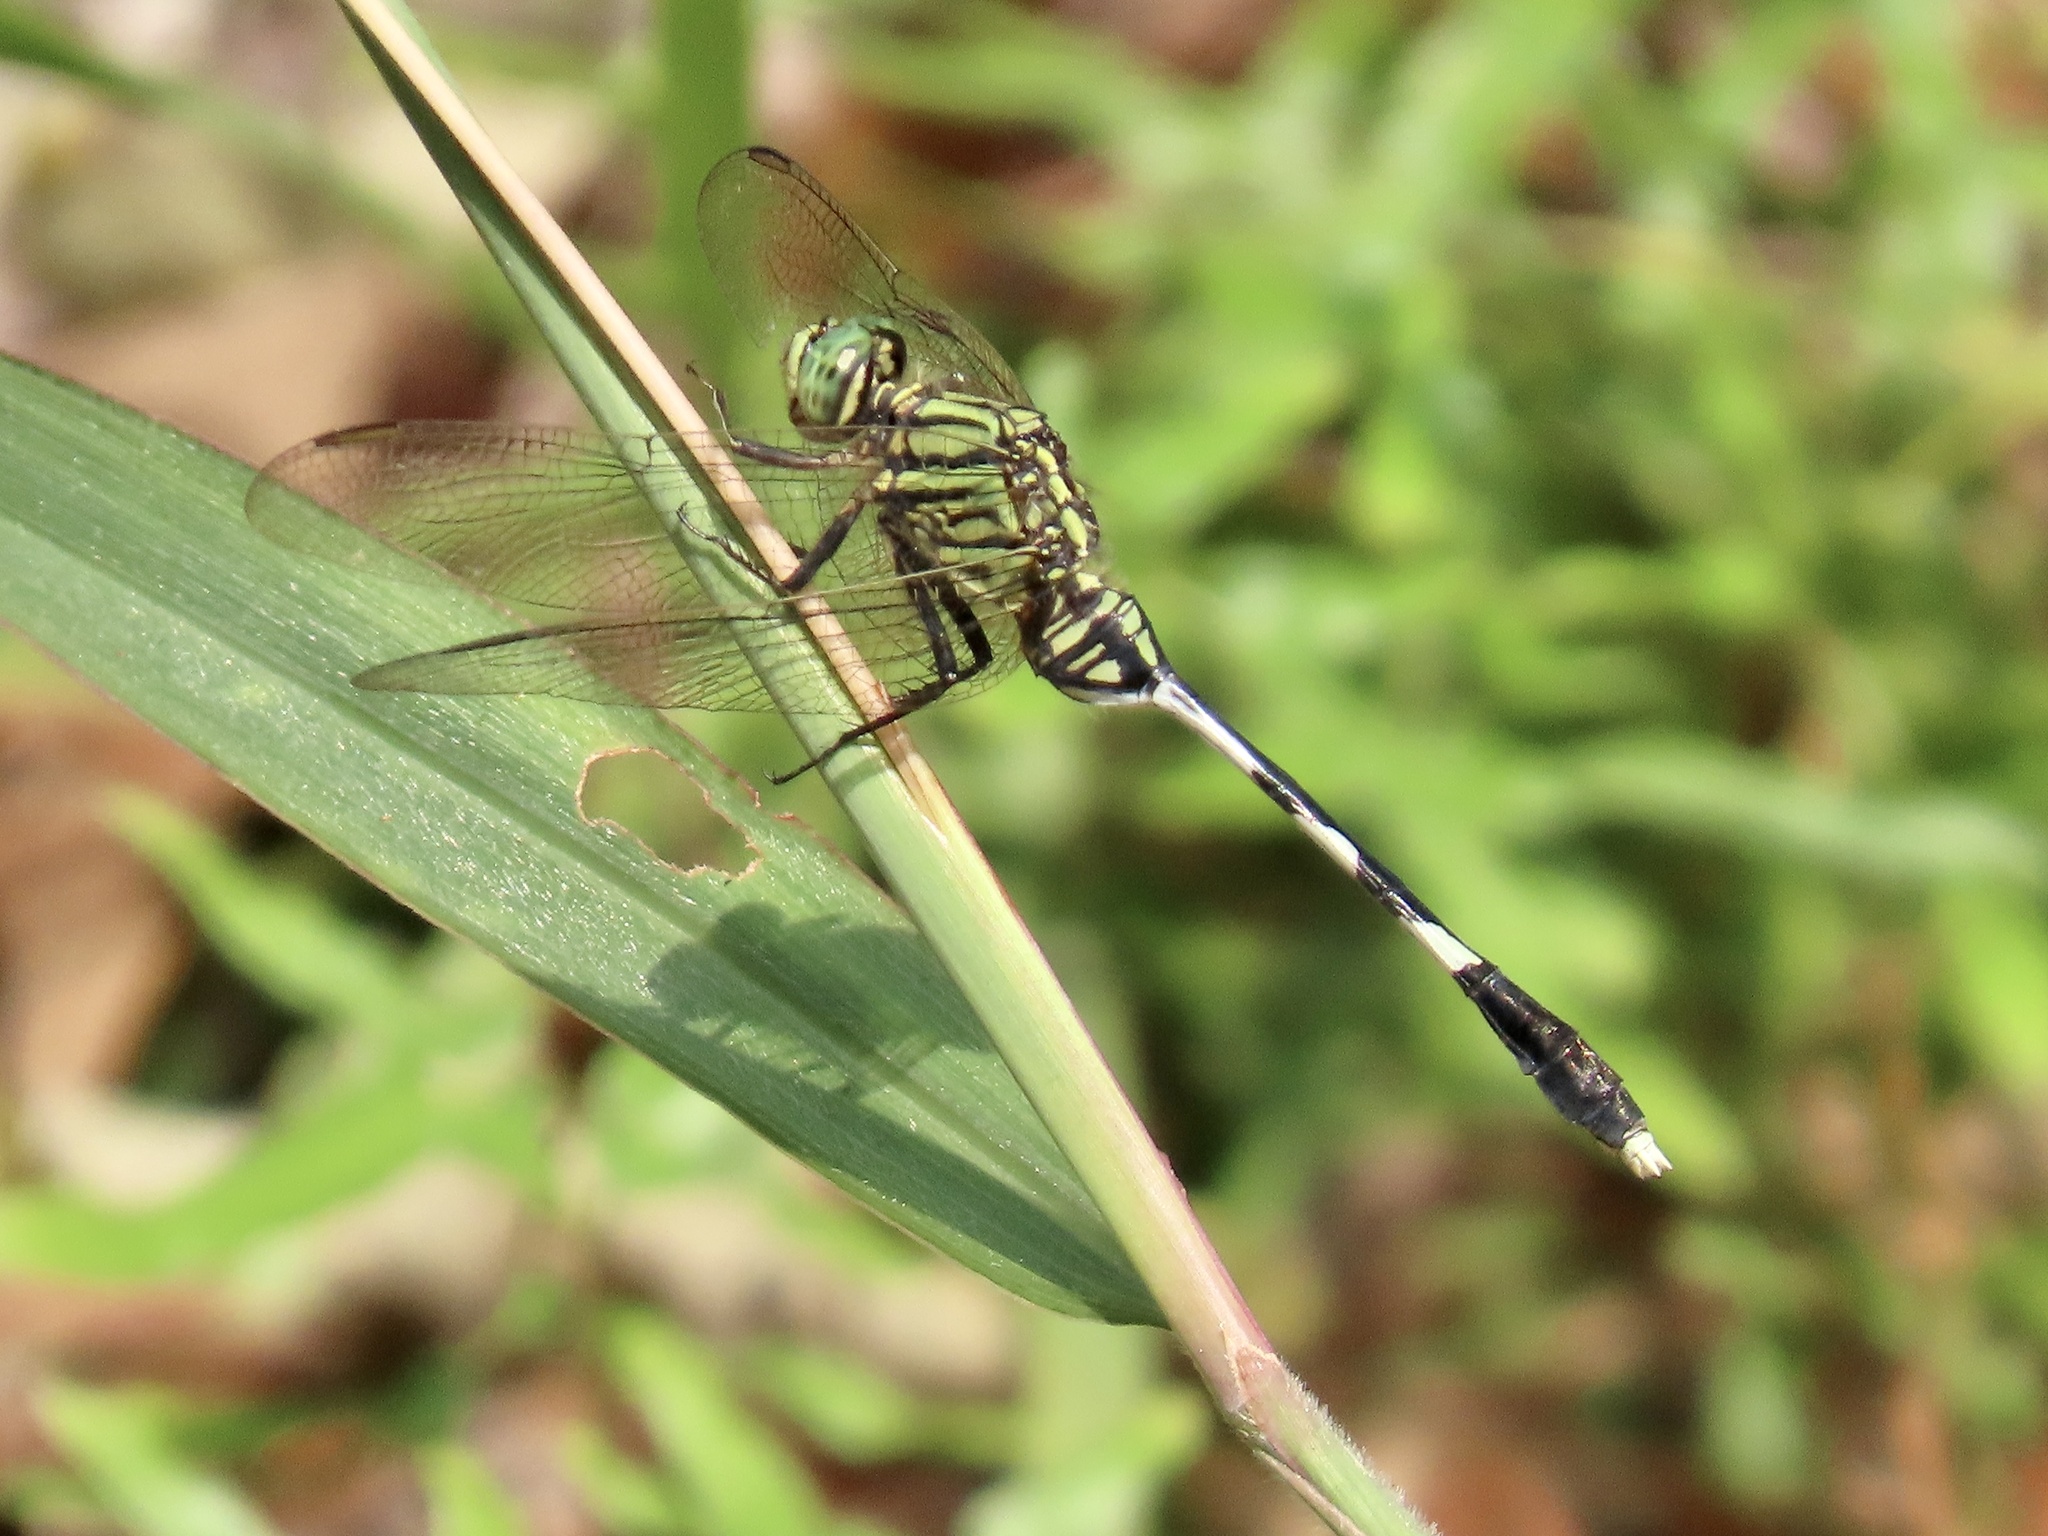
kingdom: Animalia
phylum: Arthropoda
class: Insecta
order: Odonata
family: Libellulidae
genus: Orthetrum
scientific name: Orthetrum sabina
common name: Slender skimmer
